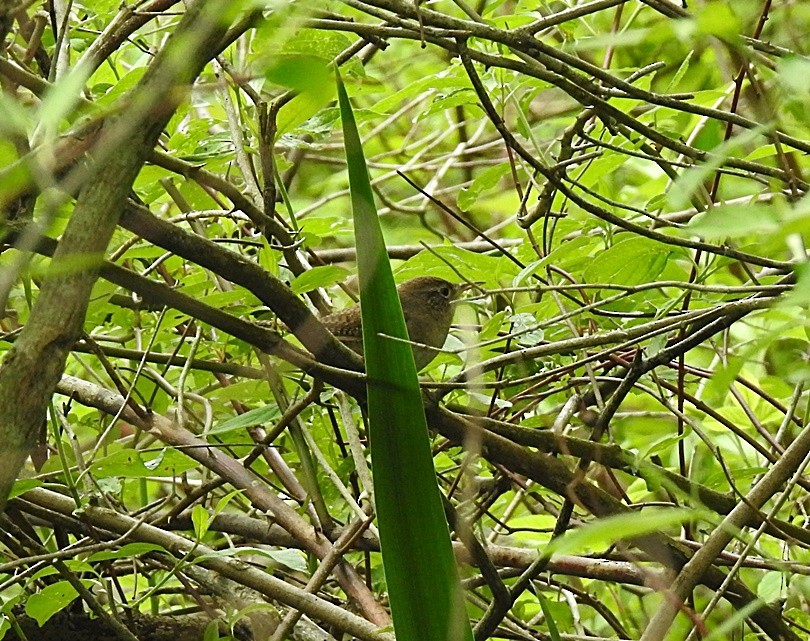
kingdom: Animalia
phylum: Chordata
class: Aves
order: Passeriformes
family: Troglodytidae
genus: Troglodytes
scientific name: Troglodytes aedon
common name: House wren
